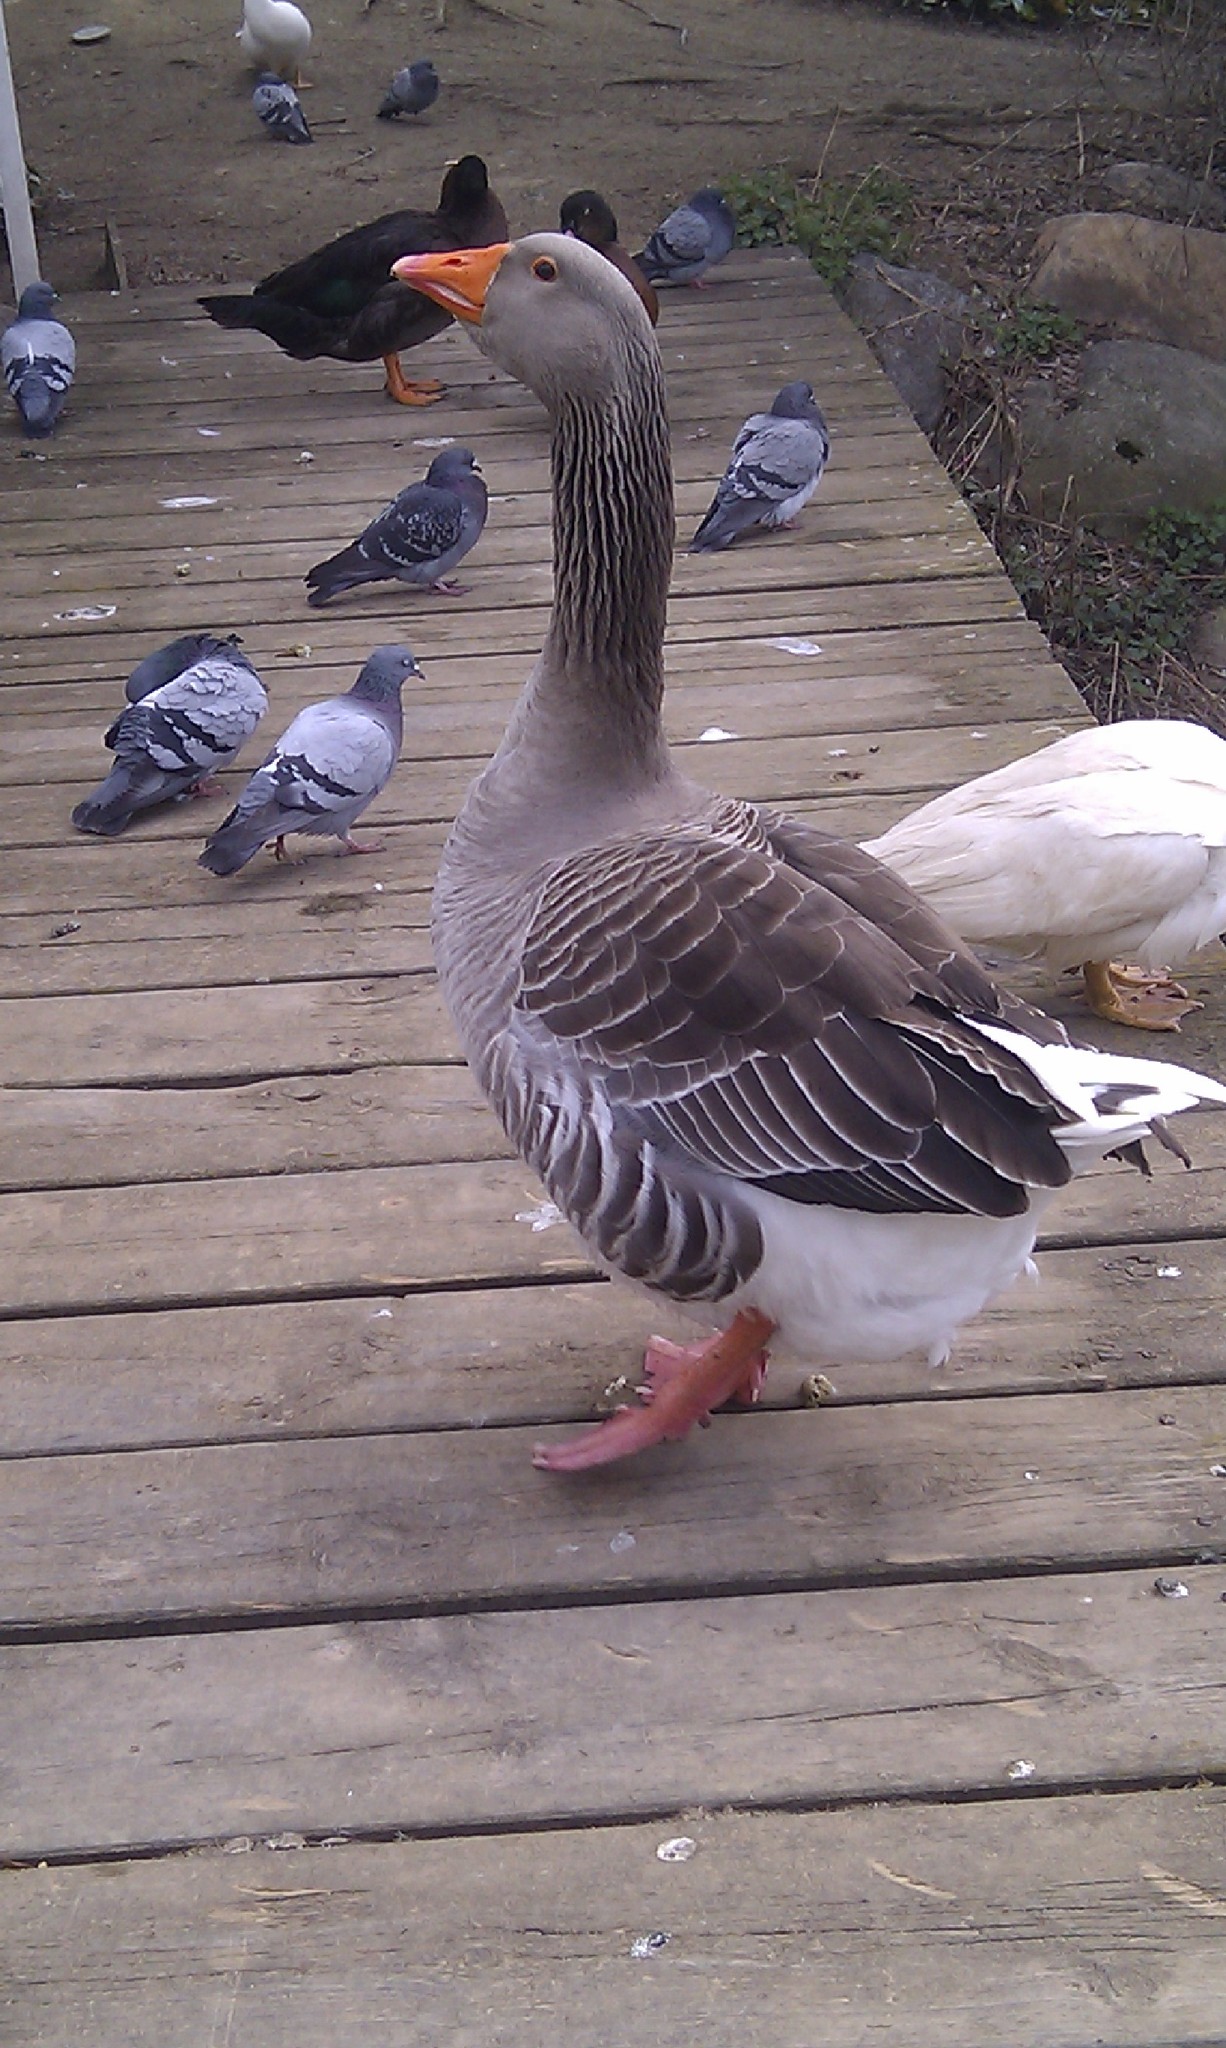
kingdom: Animalia
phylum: Chordata
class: Aves
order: Anseriformes
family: Anatidae
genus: Anser
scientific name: Anser anser
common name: Greylag goose
